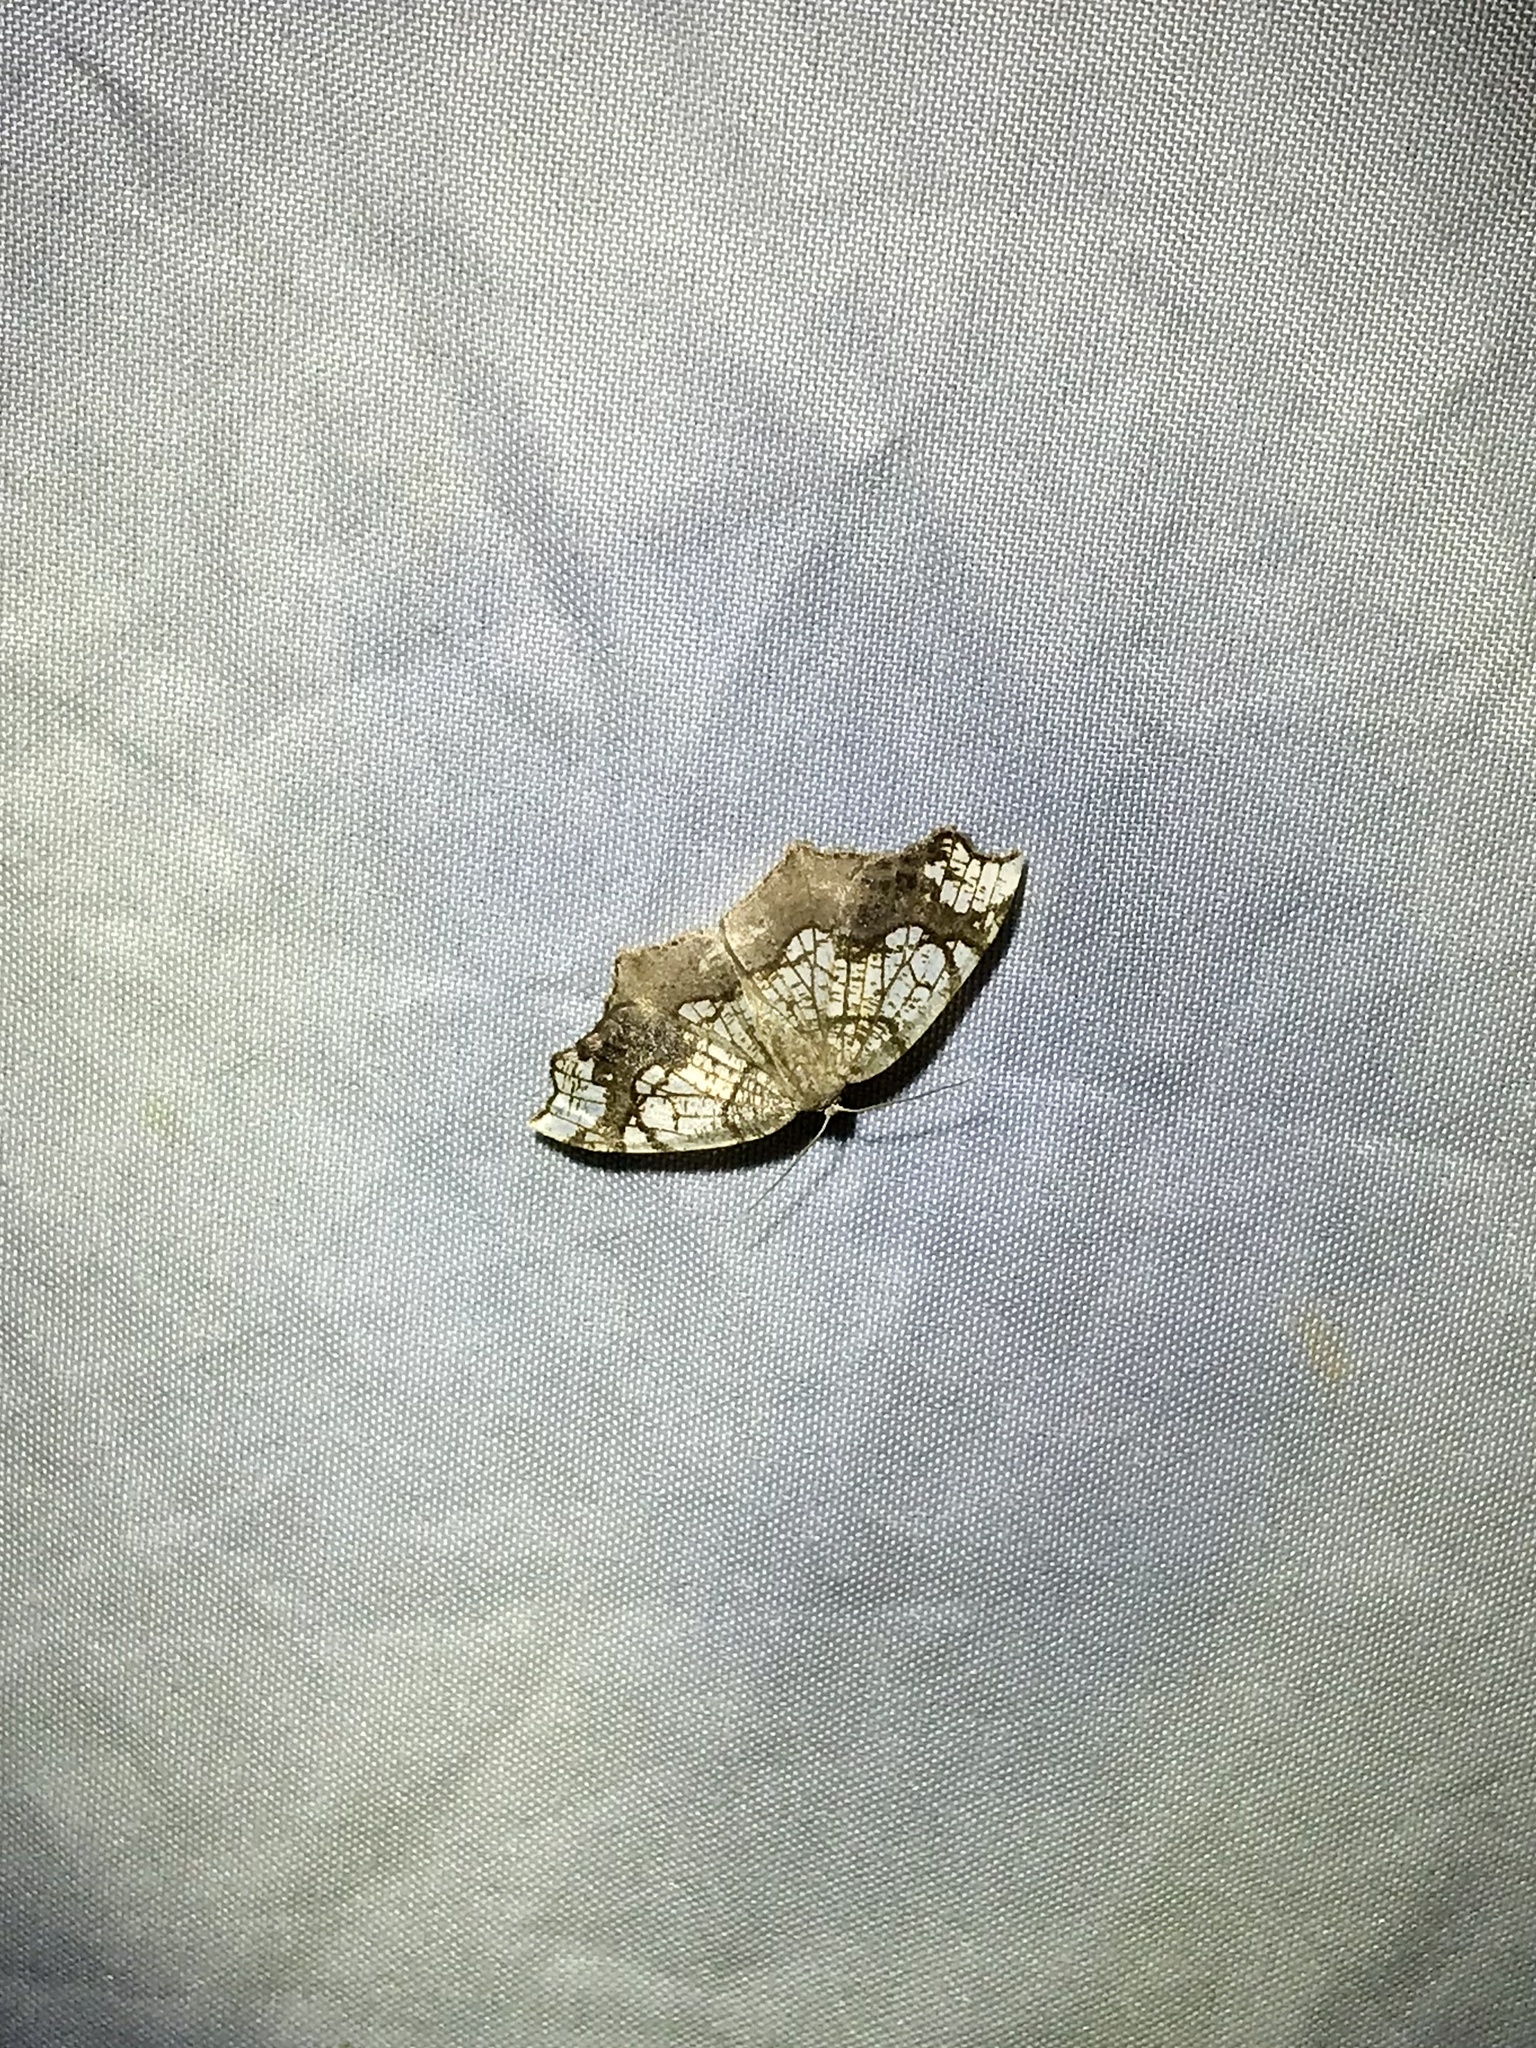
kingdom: Animalia
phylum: Arthropoda
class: Insecta
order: Lepidoptera
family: Geometridae
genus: Nematocampa
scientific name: Nematocampa resistaria
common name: Horned spanworm moth
